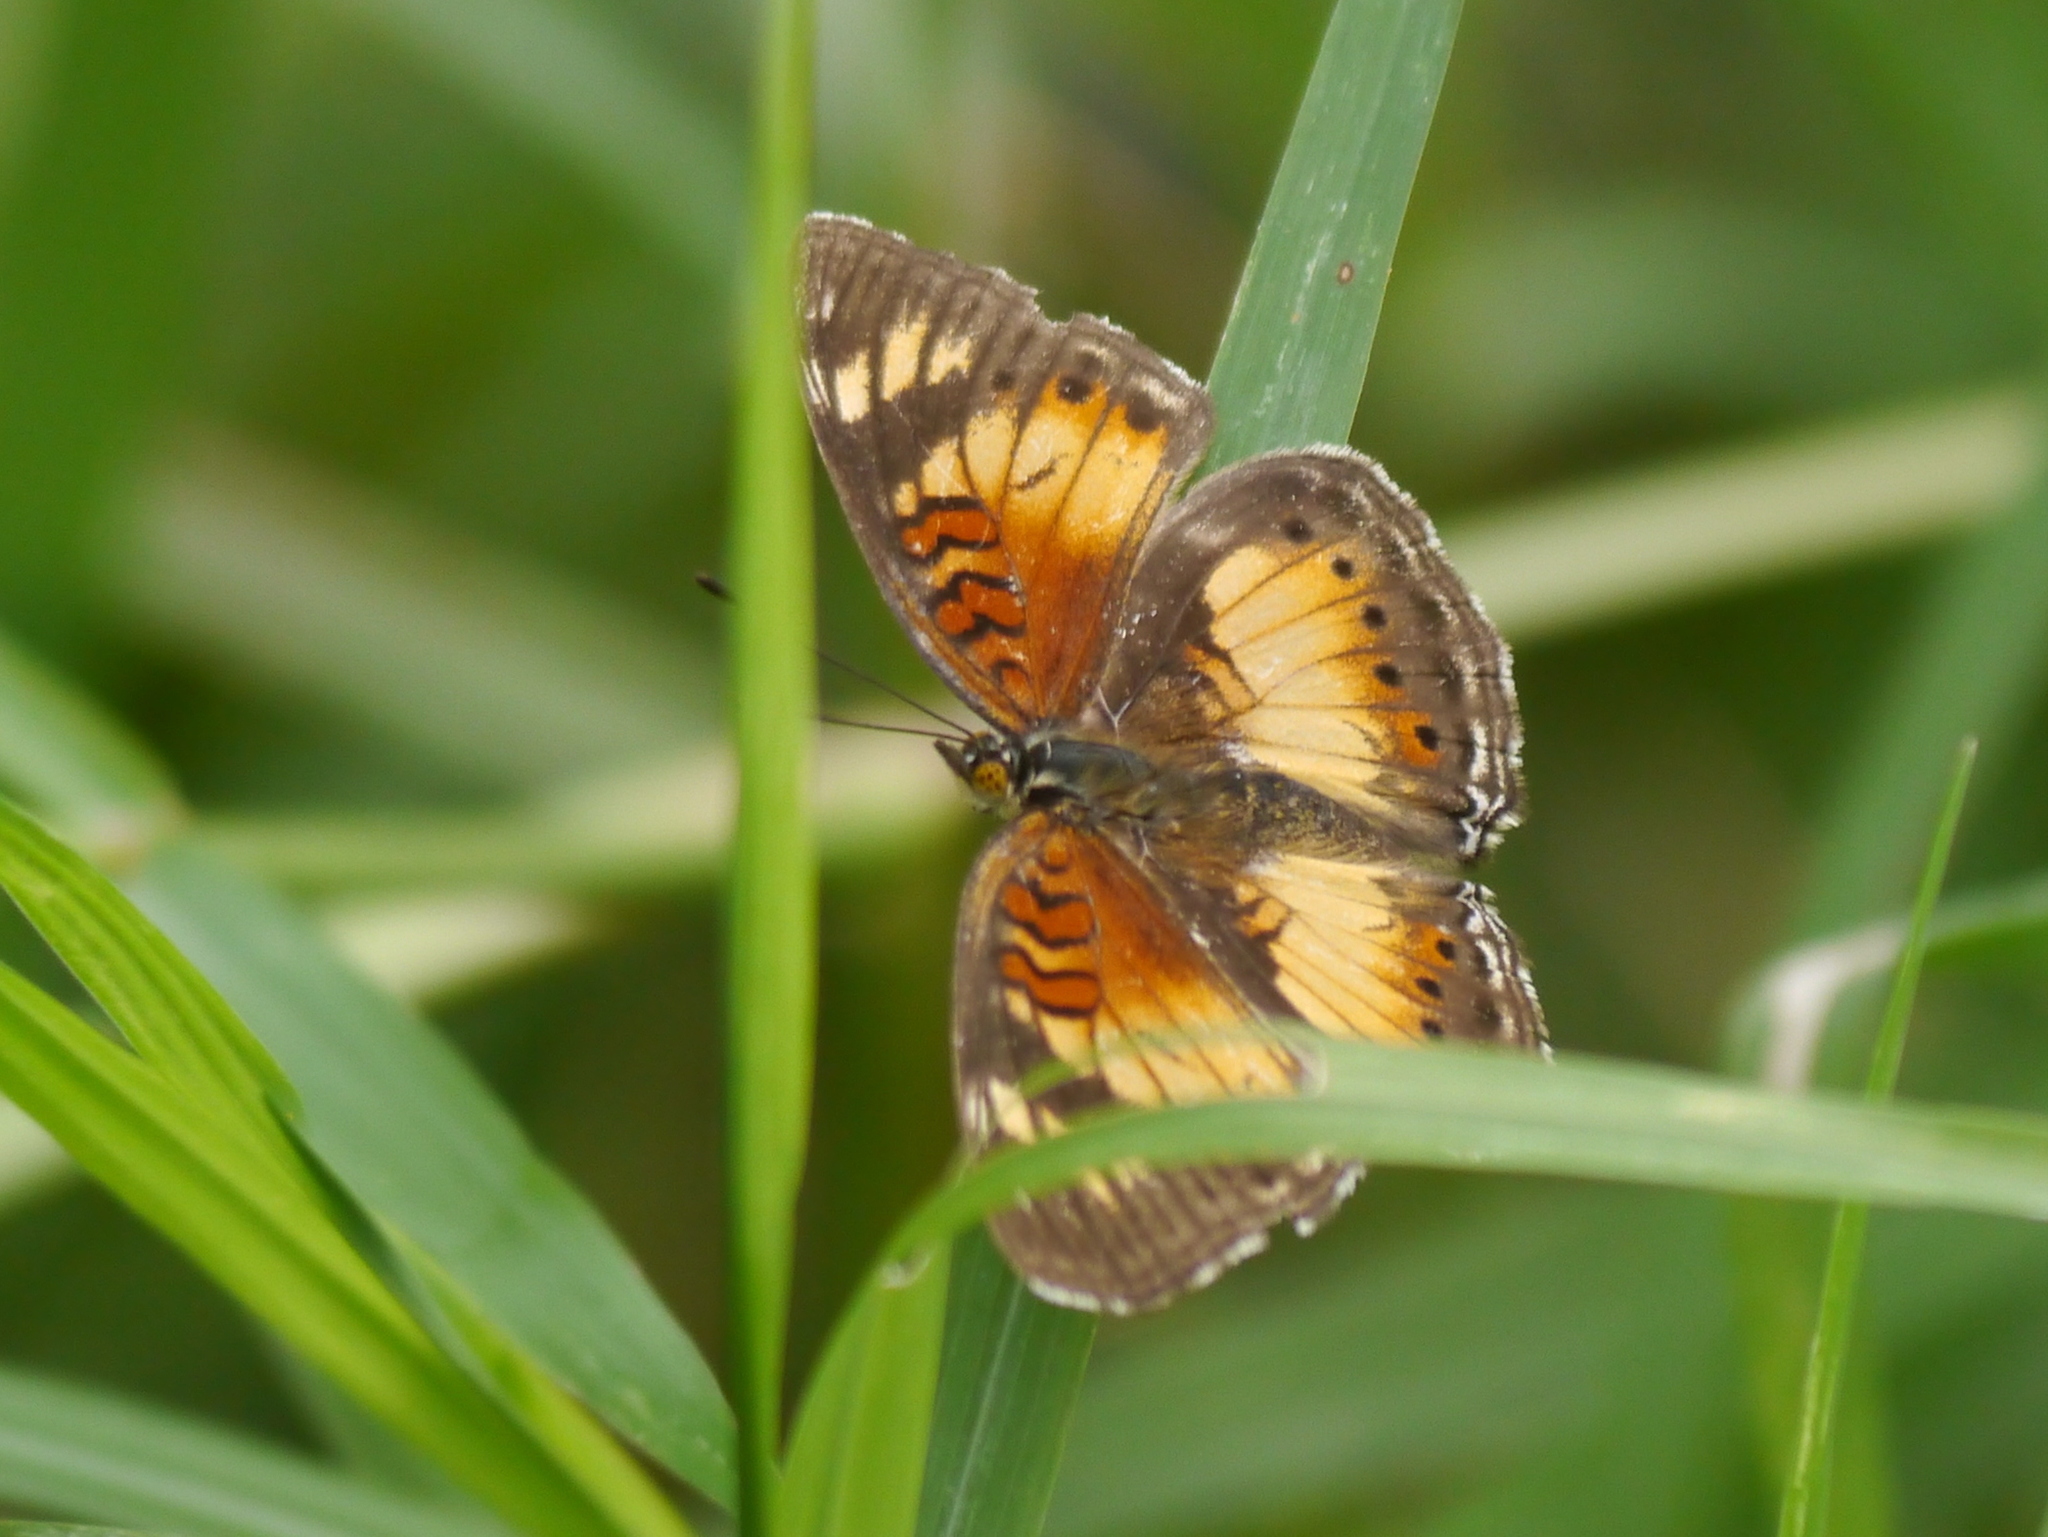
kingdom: Animalia
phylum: Arthropoda
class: Insecta
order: Lepidoptera
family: Nymphalidae
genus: Junonia
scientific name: Junonia sophia
